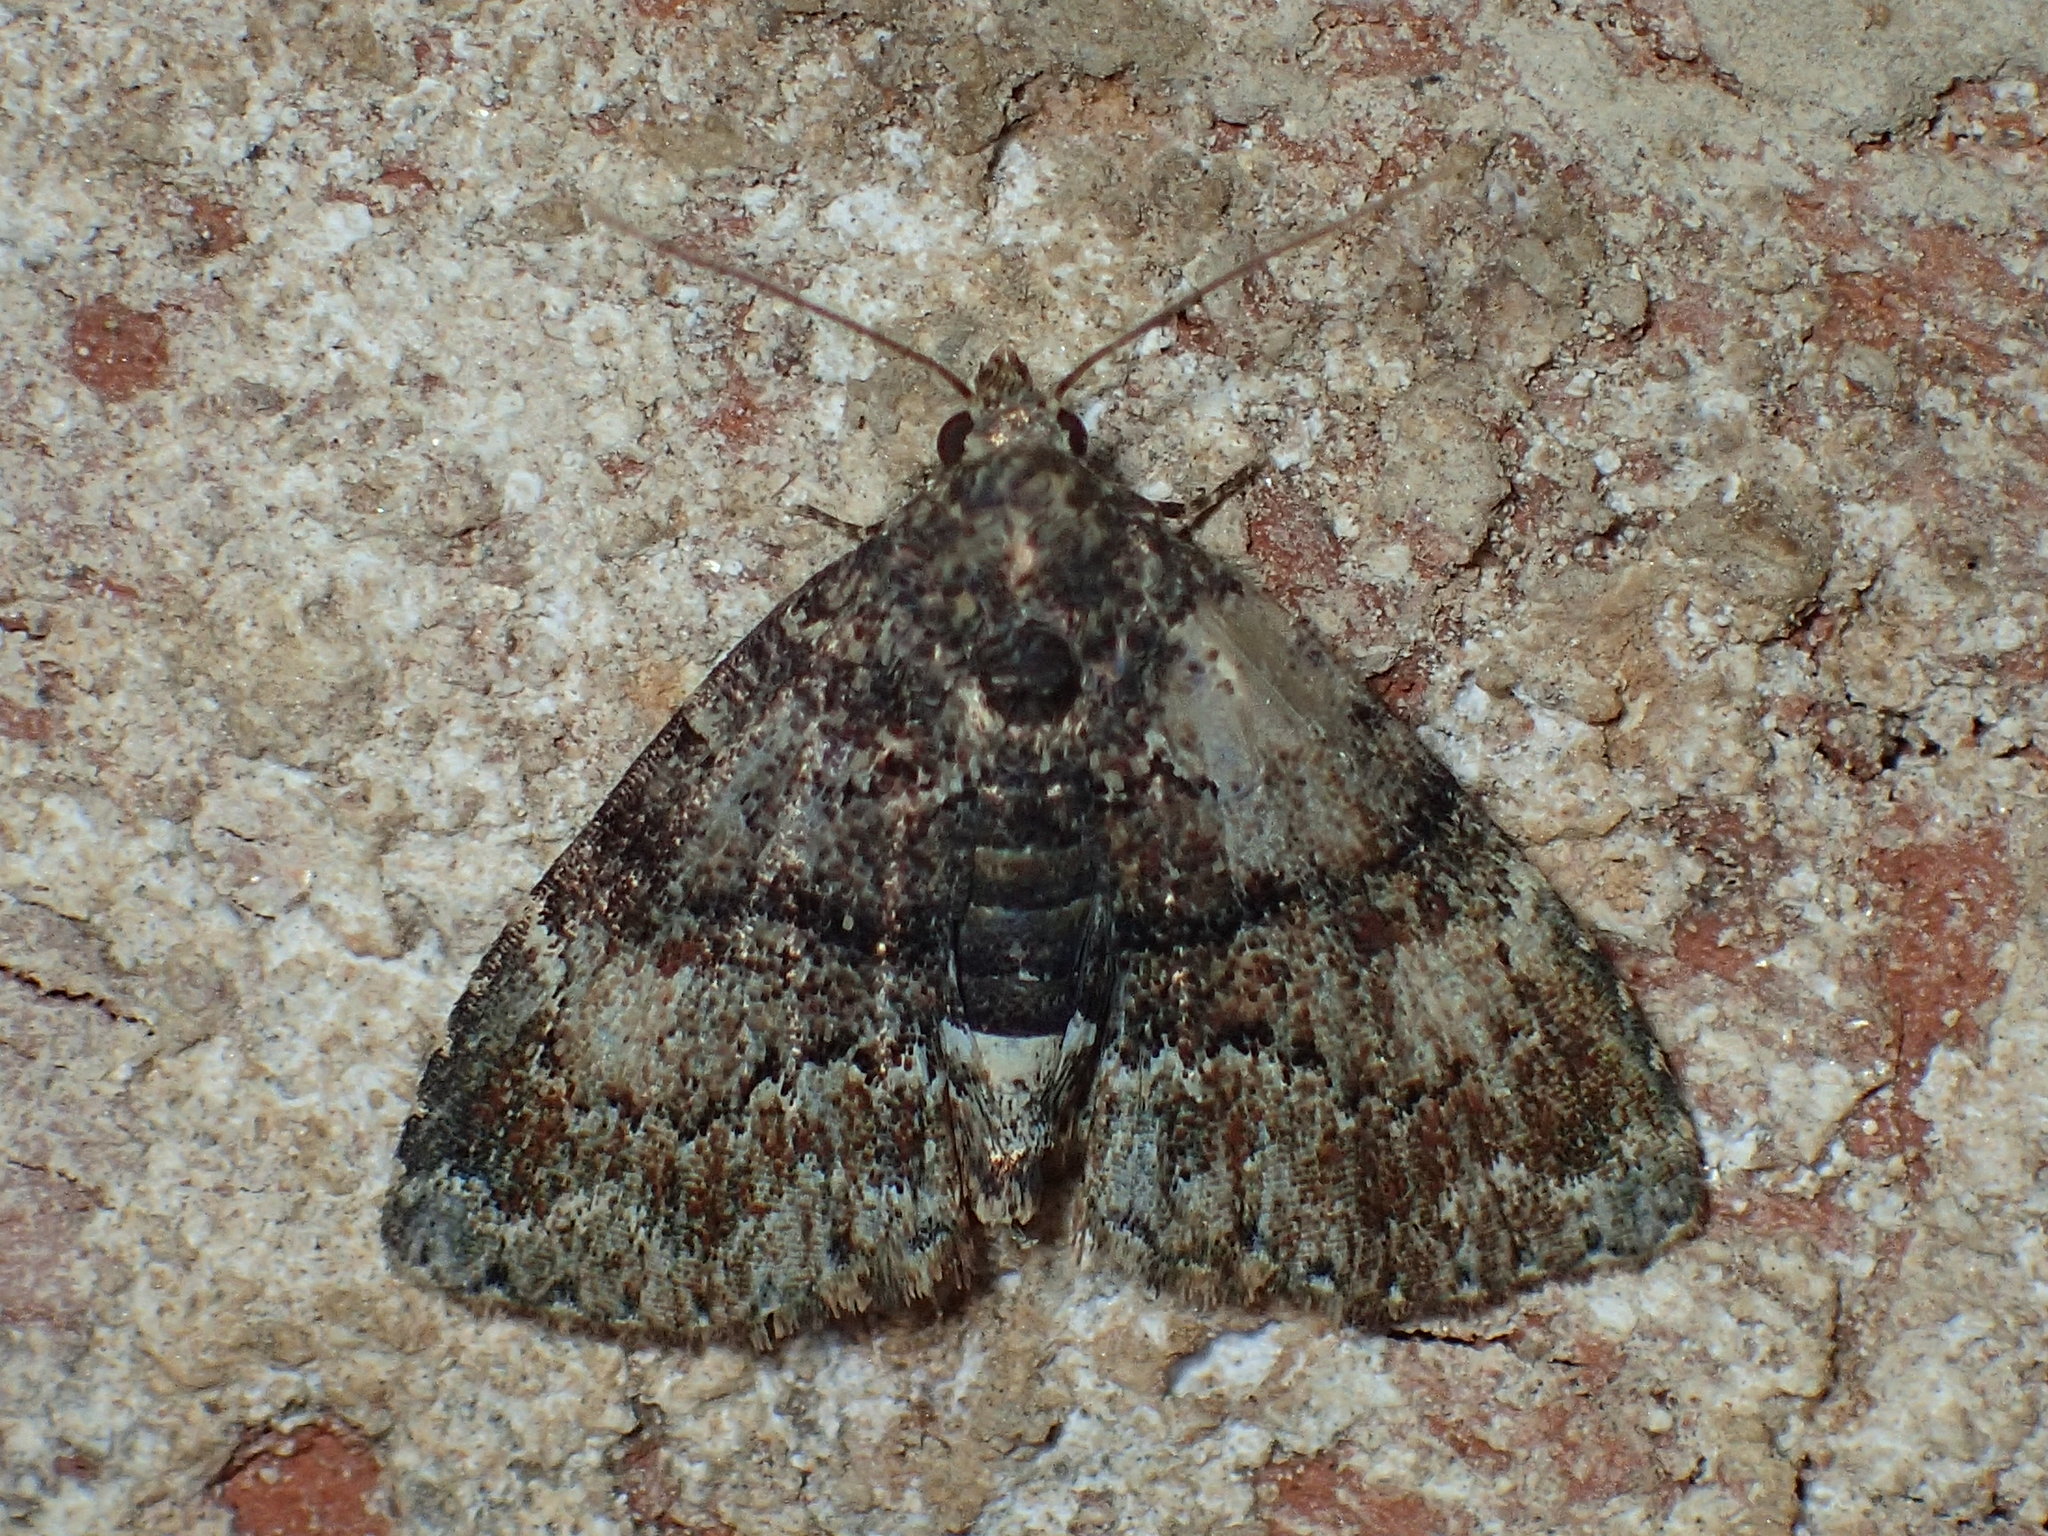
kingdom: Animalia
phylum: Arthropoda
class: Insecta
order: Lepidoptera
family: Erebidae
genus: Metalectra
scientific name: Metalectra richardsi
